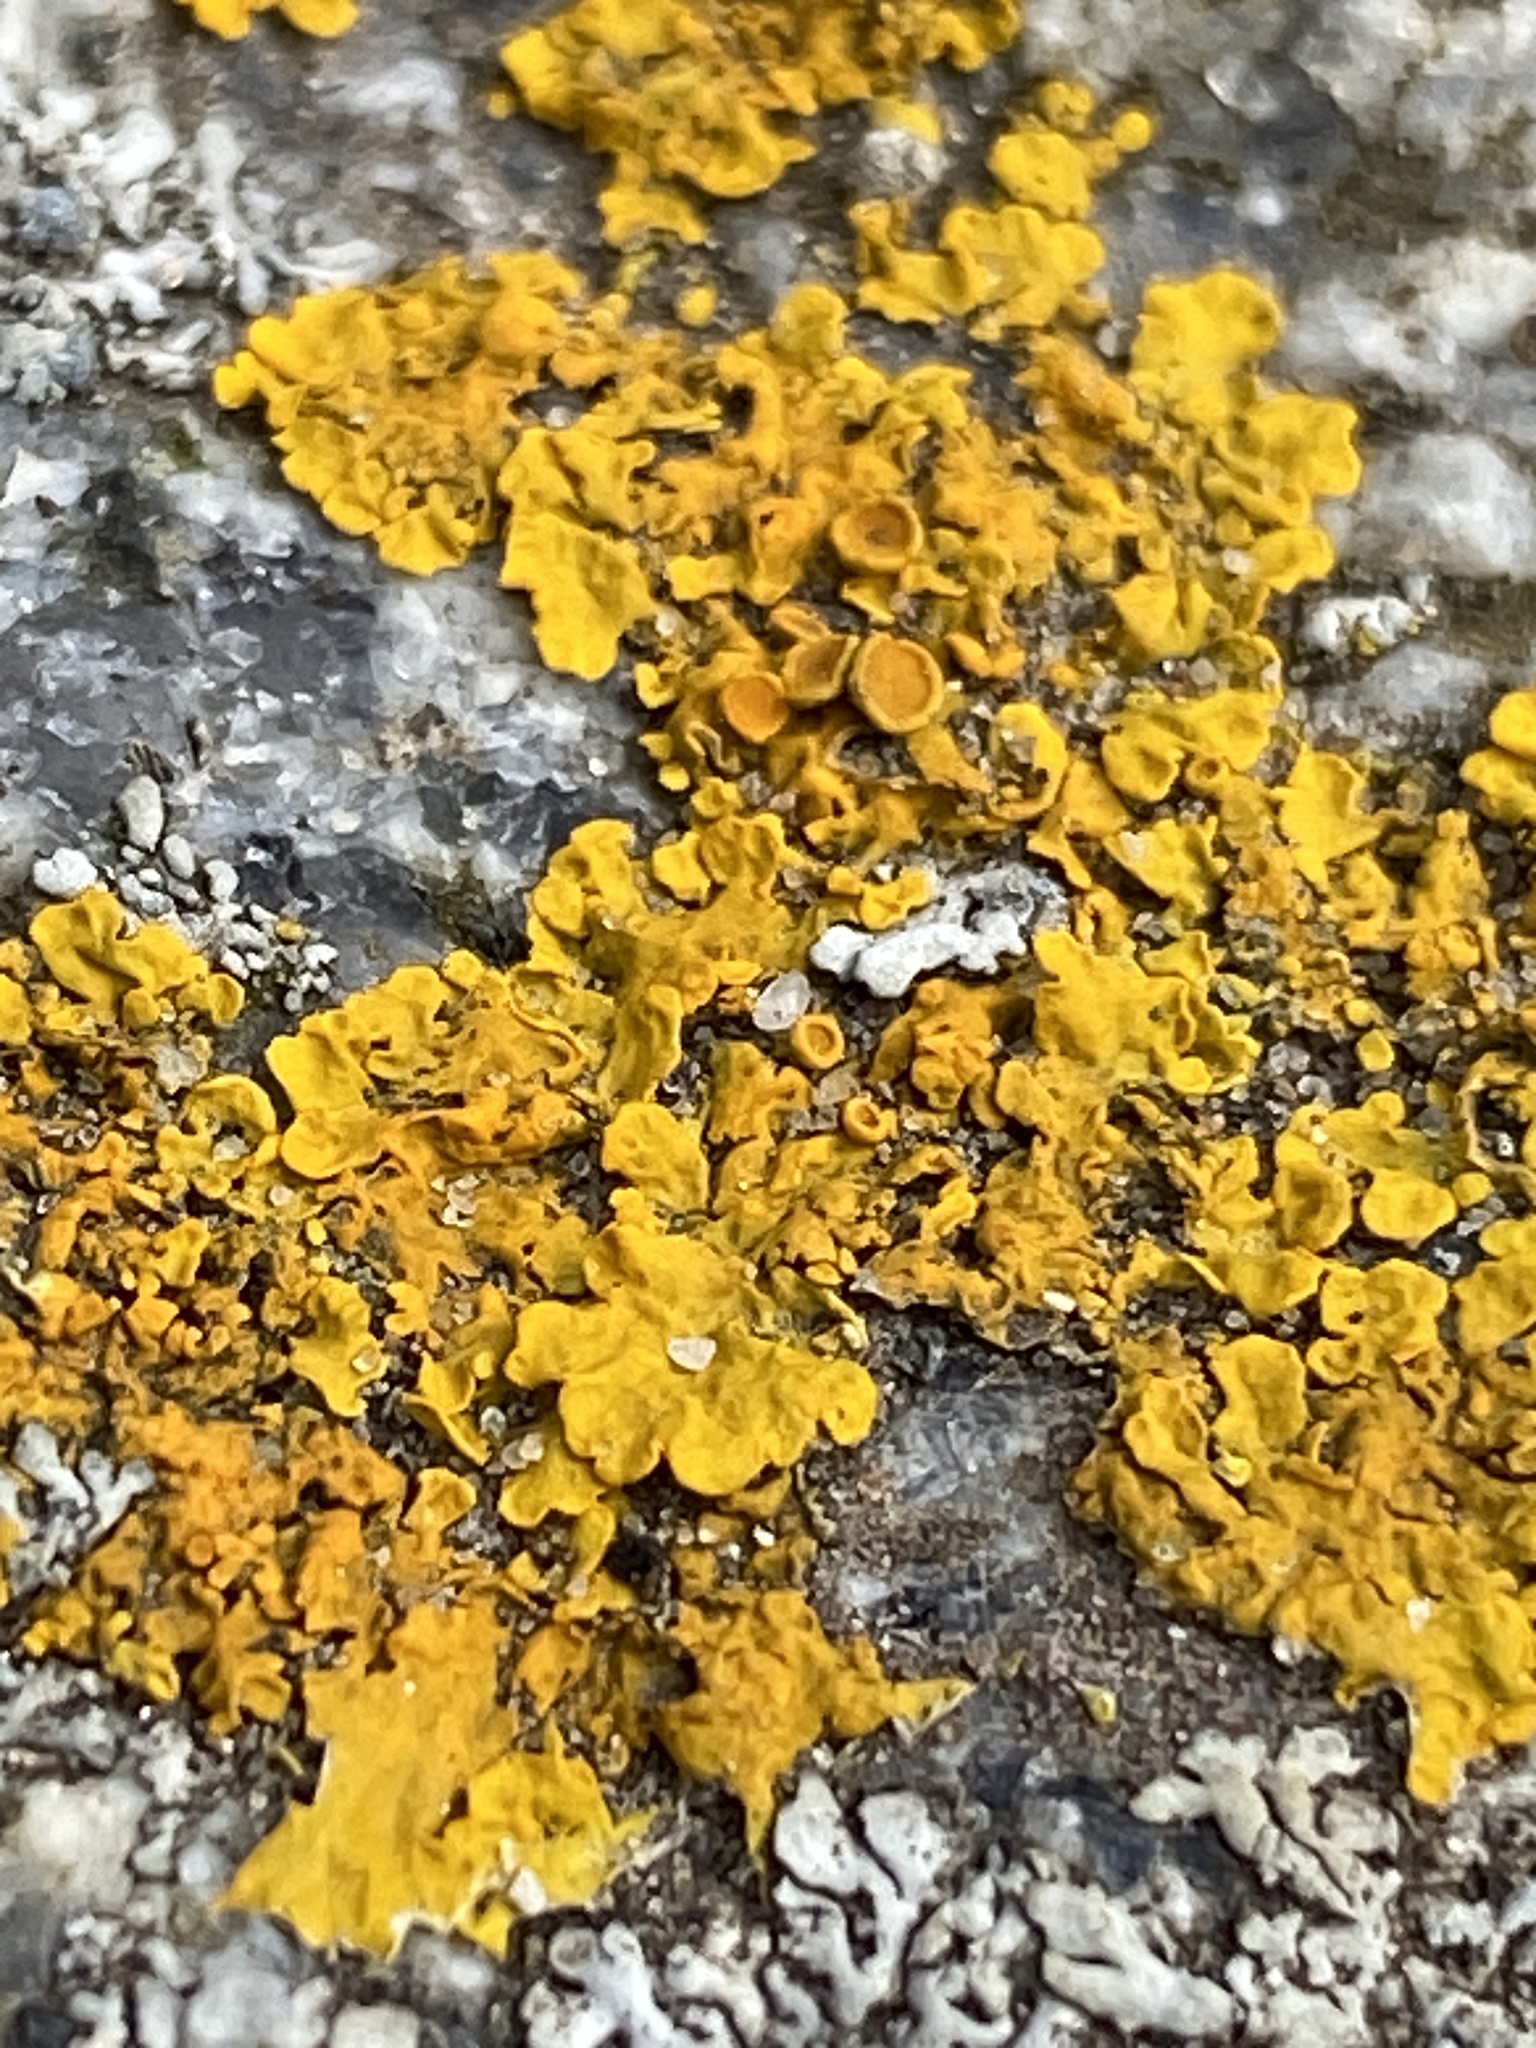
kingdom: Fungi
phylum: Ascomycota
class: Lecanoromycetes
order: Teloschistales
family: Teloschistaceae
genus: Xanthoria
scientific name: Xanthoria parietina
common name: Common orange lichen
